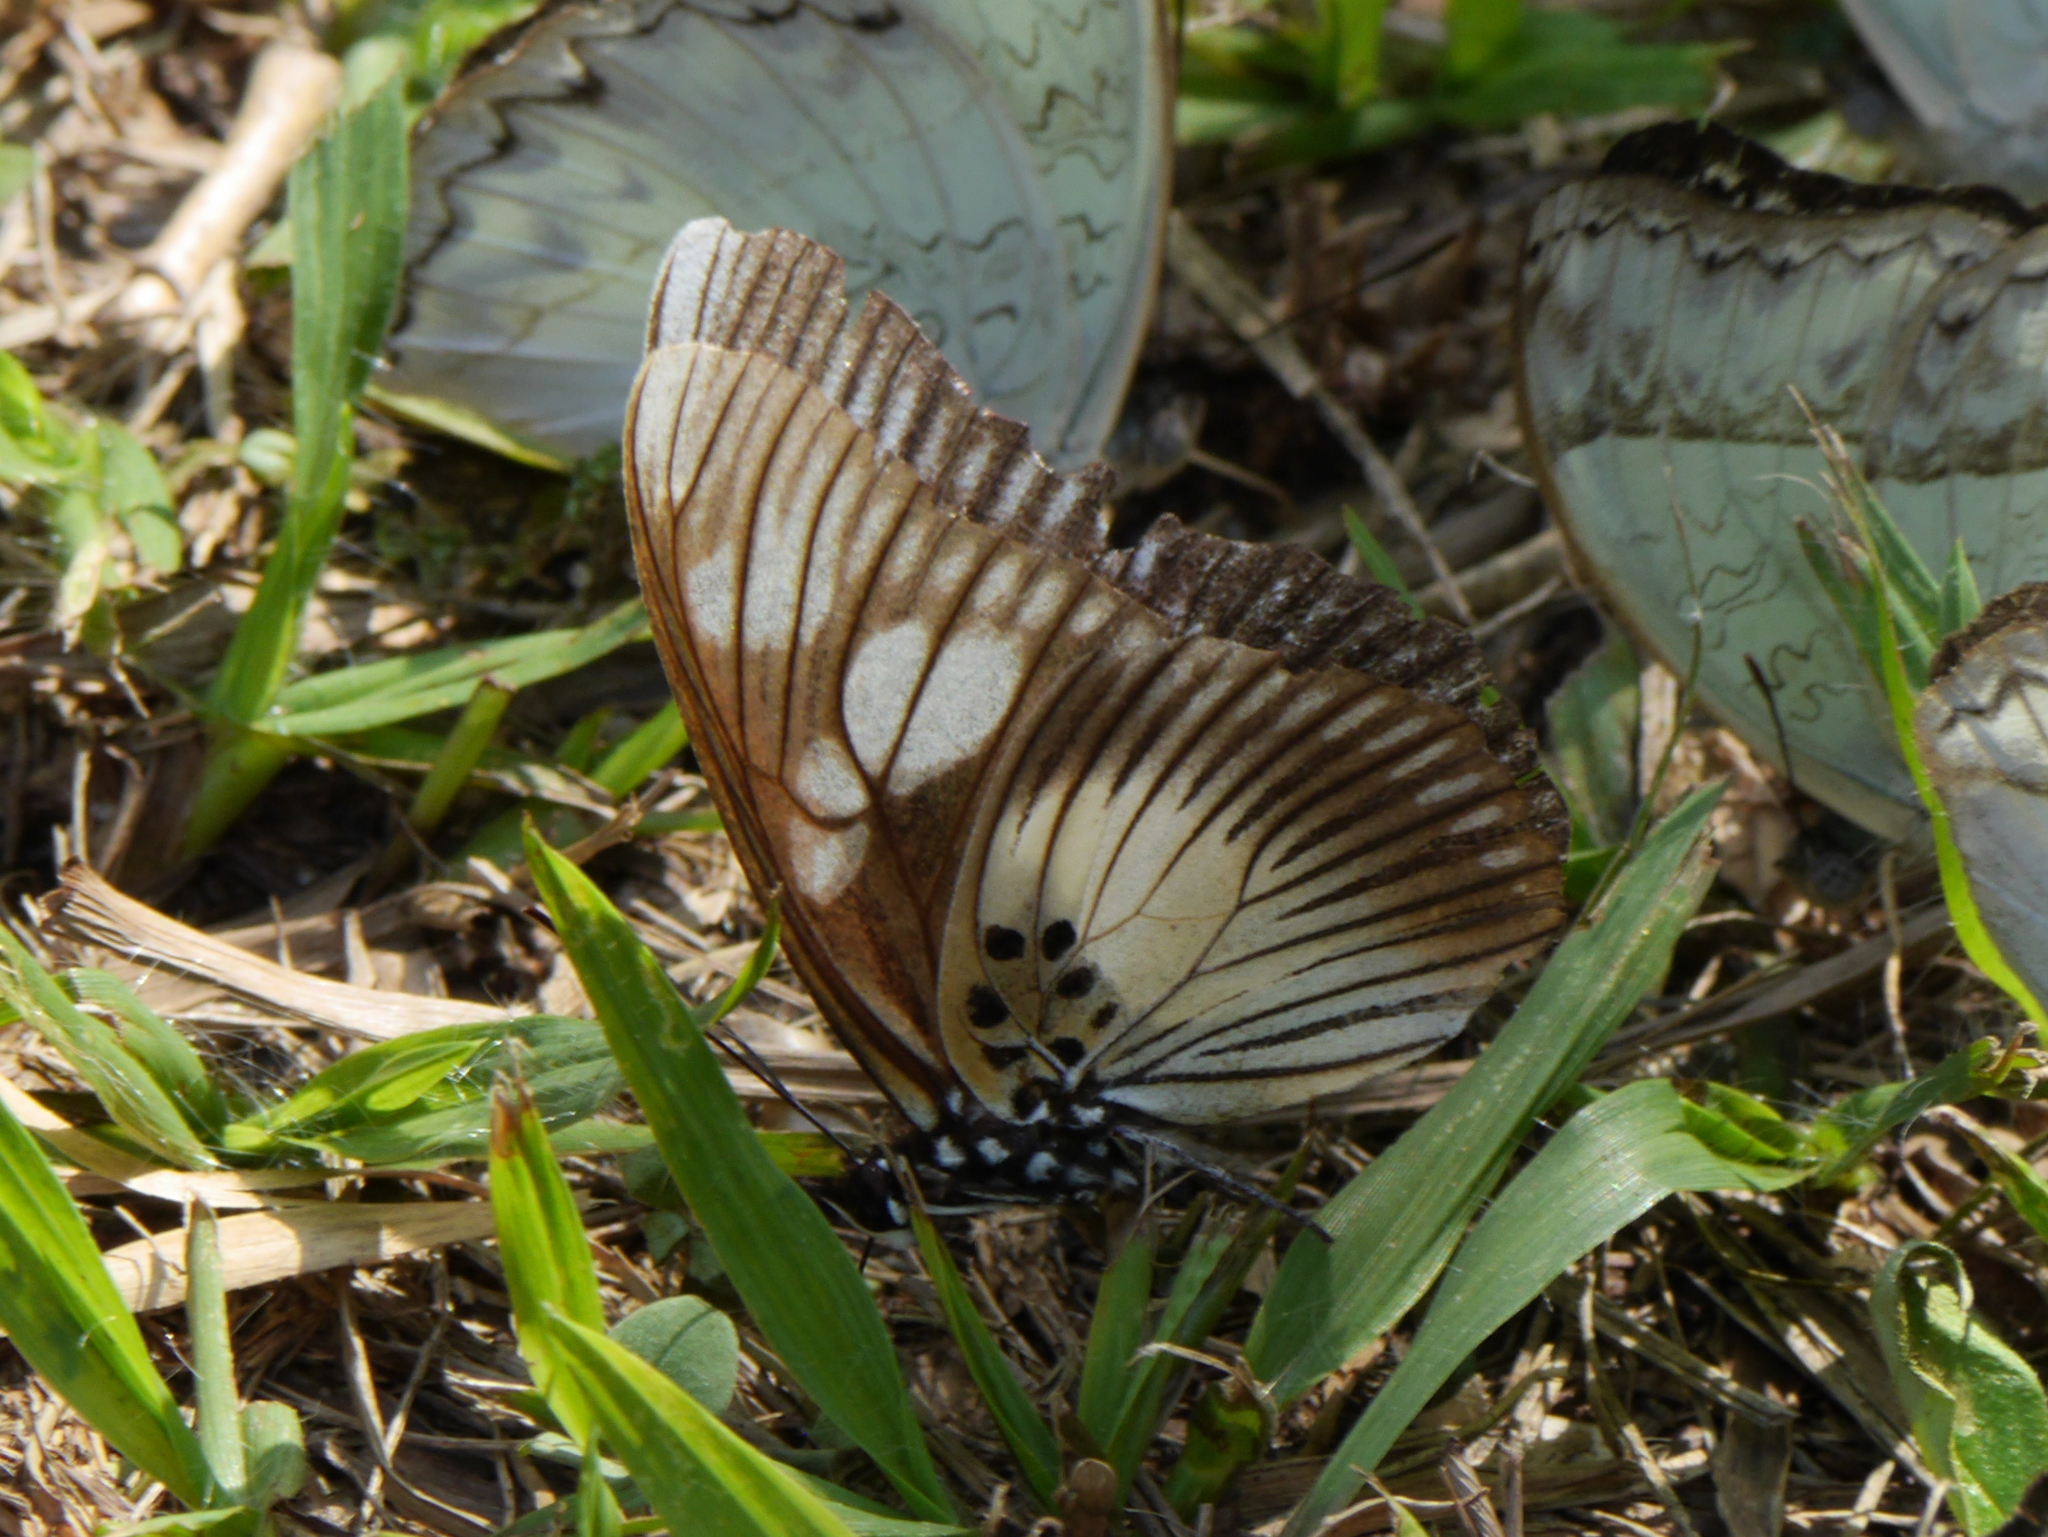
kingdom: Animalia
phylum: Arthropoda
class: Insecta
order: Lepidoptera
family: Nymphalidae
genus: Chloropoea
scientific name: Chloropoea lucretia
